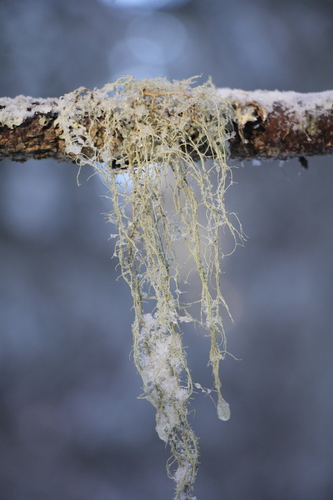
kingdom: Fungi
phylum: Ascomycota
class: Lecanoromycetes
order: Lecanorales
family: Parmeliaceae
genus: Usnea
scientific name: Usnea
